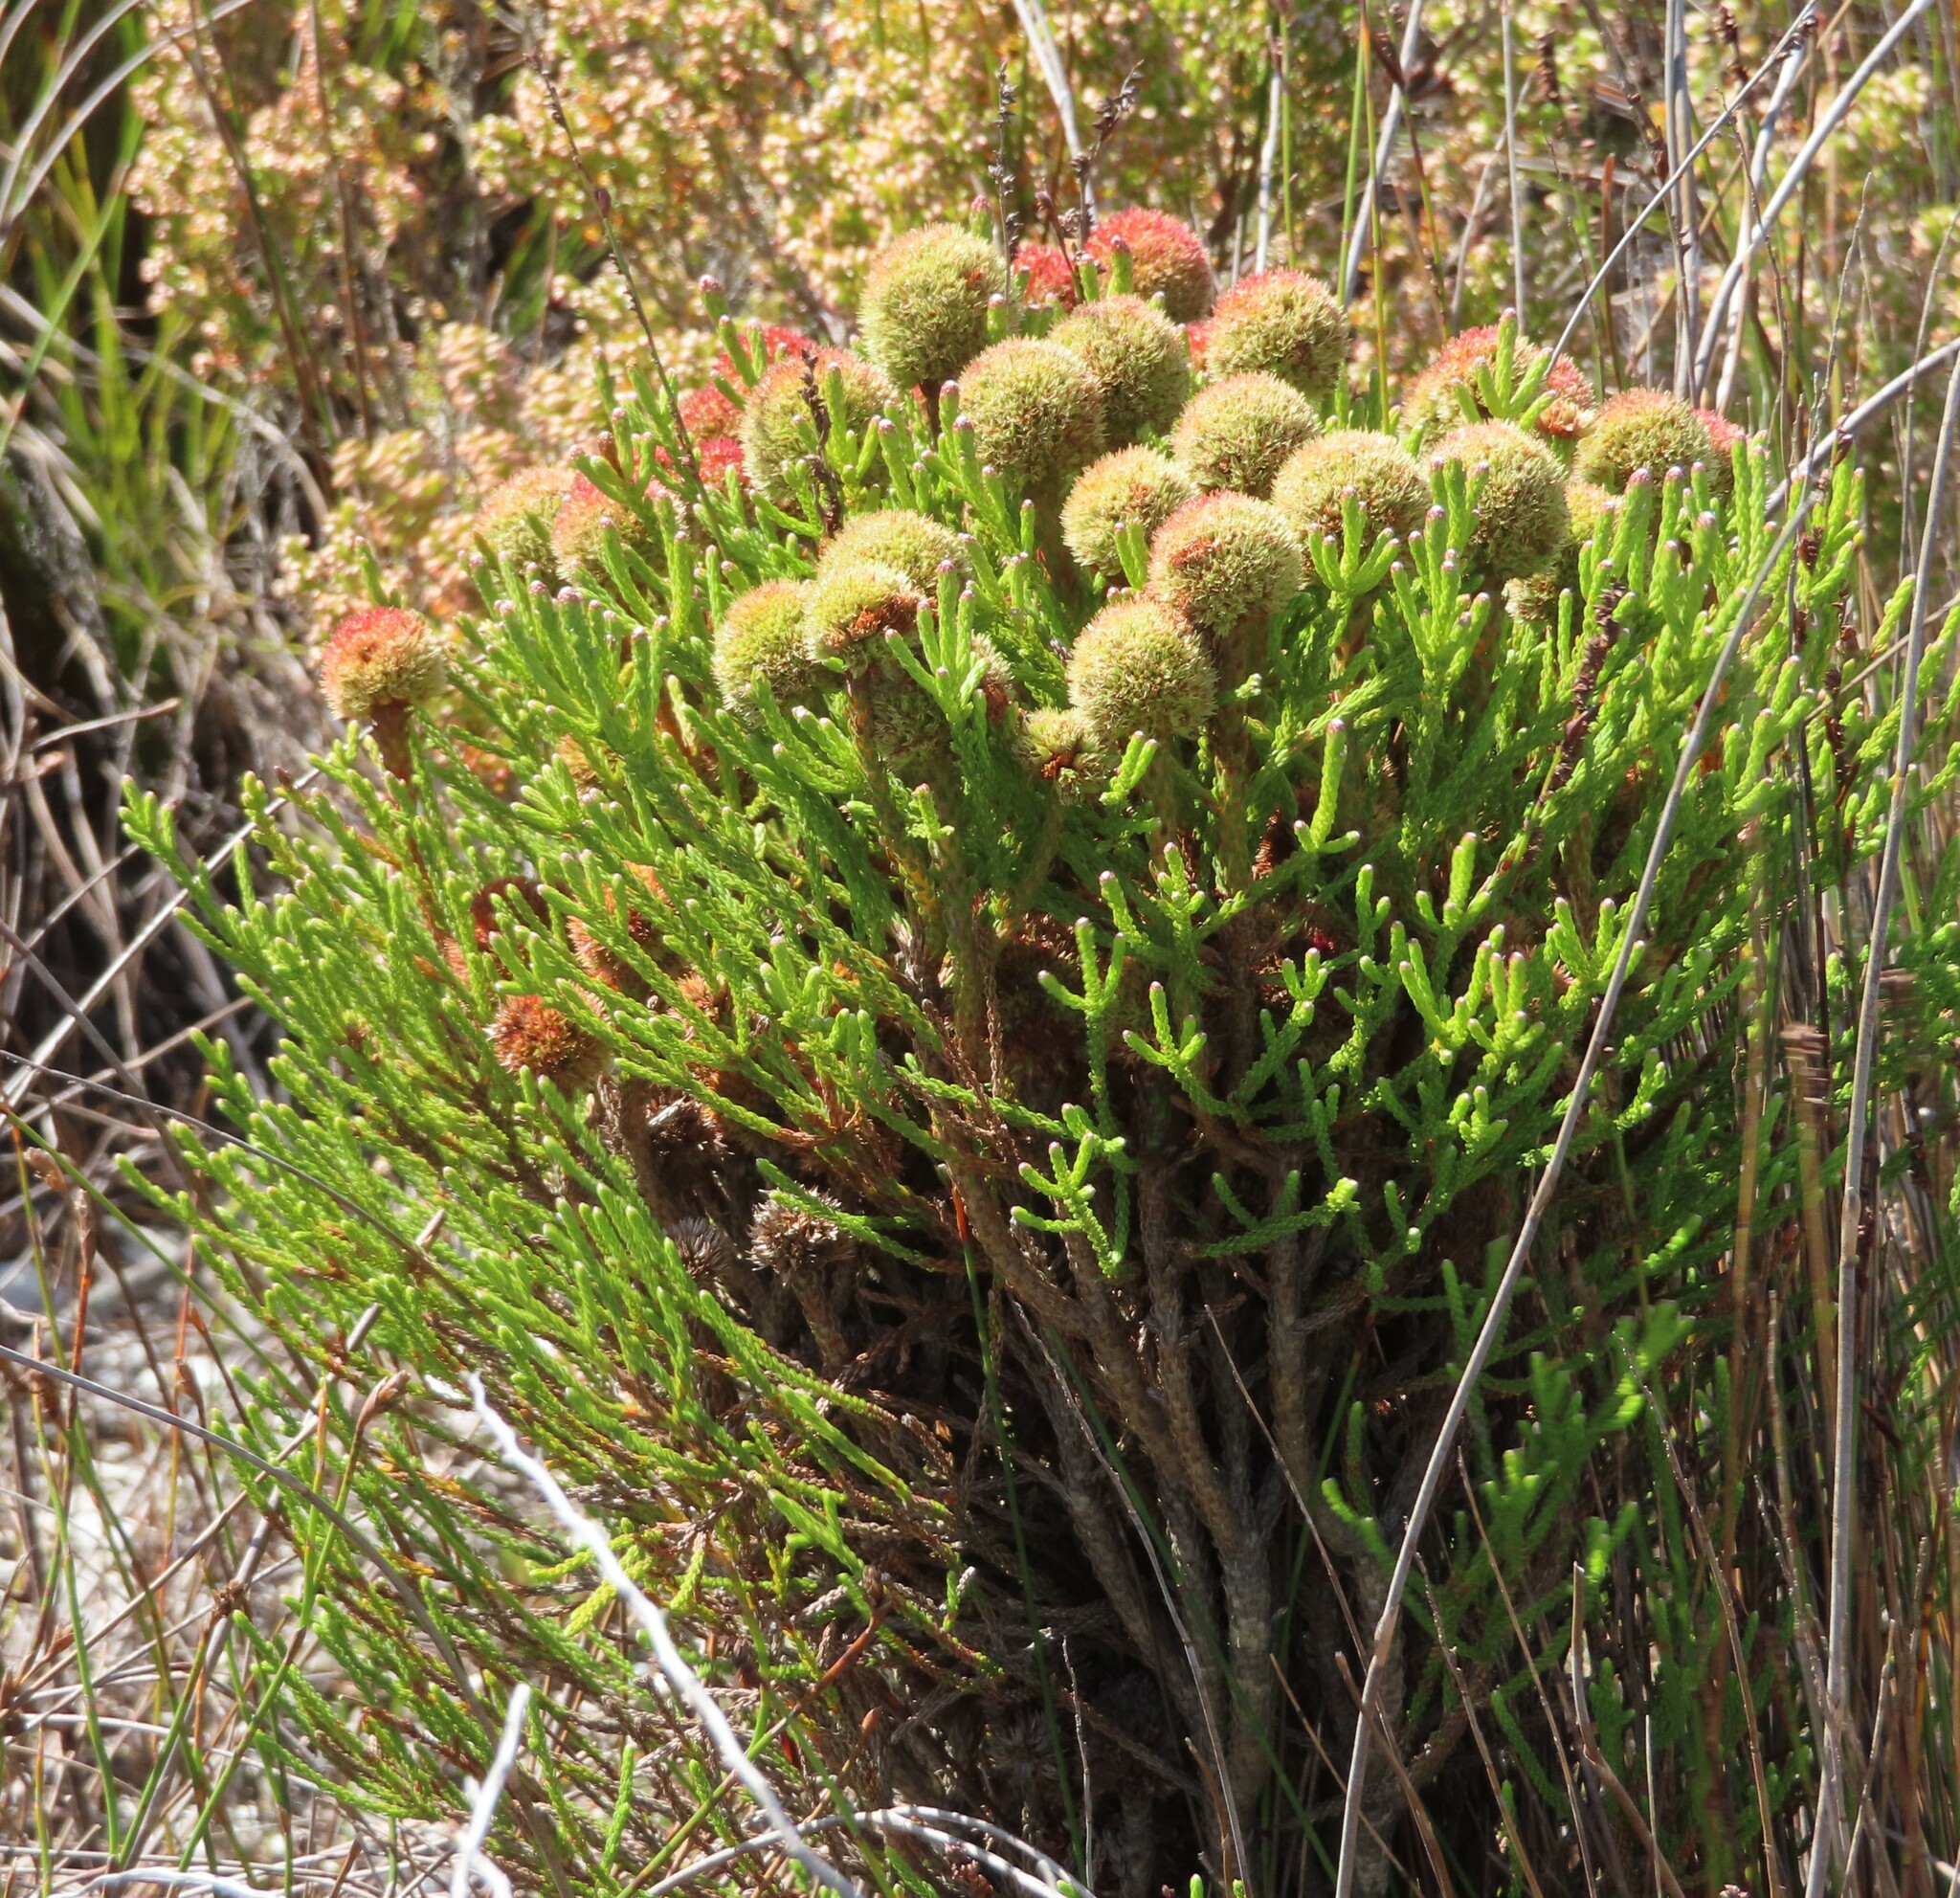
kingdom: Plantae
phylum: Tracheophyta
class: Magnoliopsida
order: Bruniales
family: Bruniaceae
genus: Brunia
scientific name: Brunia fragarioides
